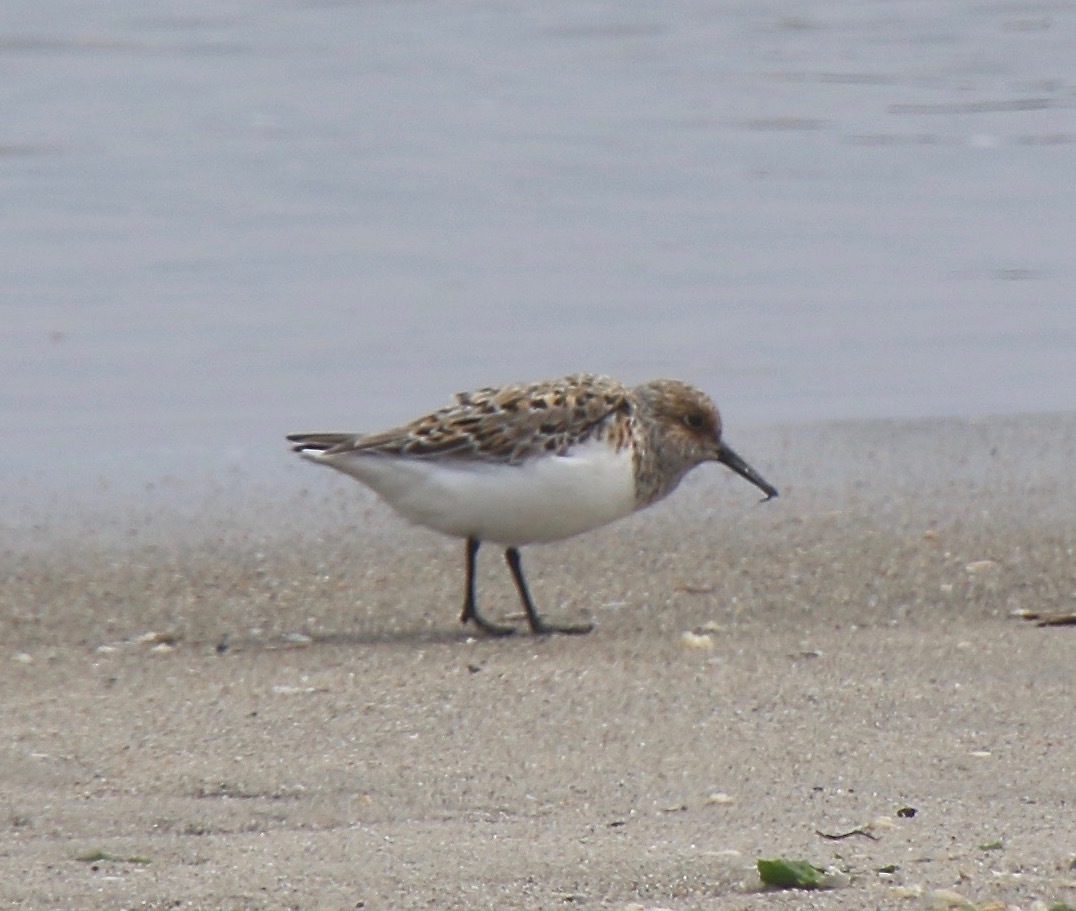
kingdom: Animalia
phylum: Chordata
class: Aves
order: Charadriiformes
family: Scolopacidae
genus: Calidris
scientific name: Calidris alba
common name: Sanderling
